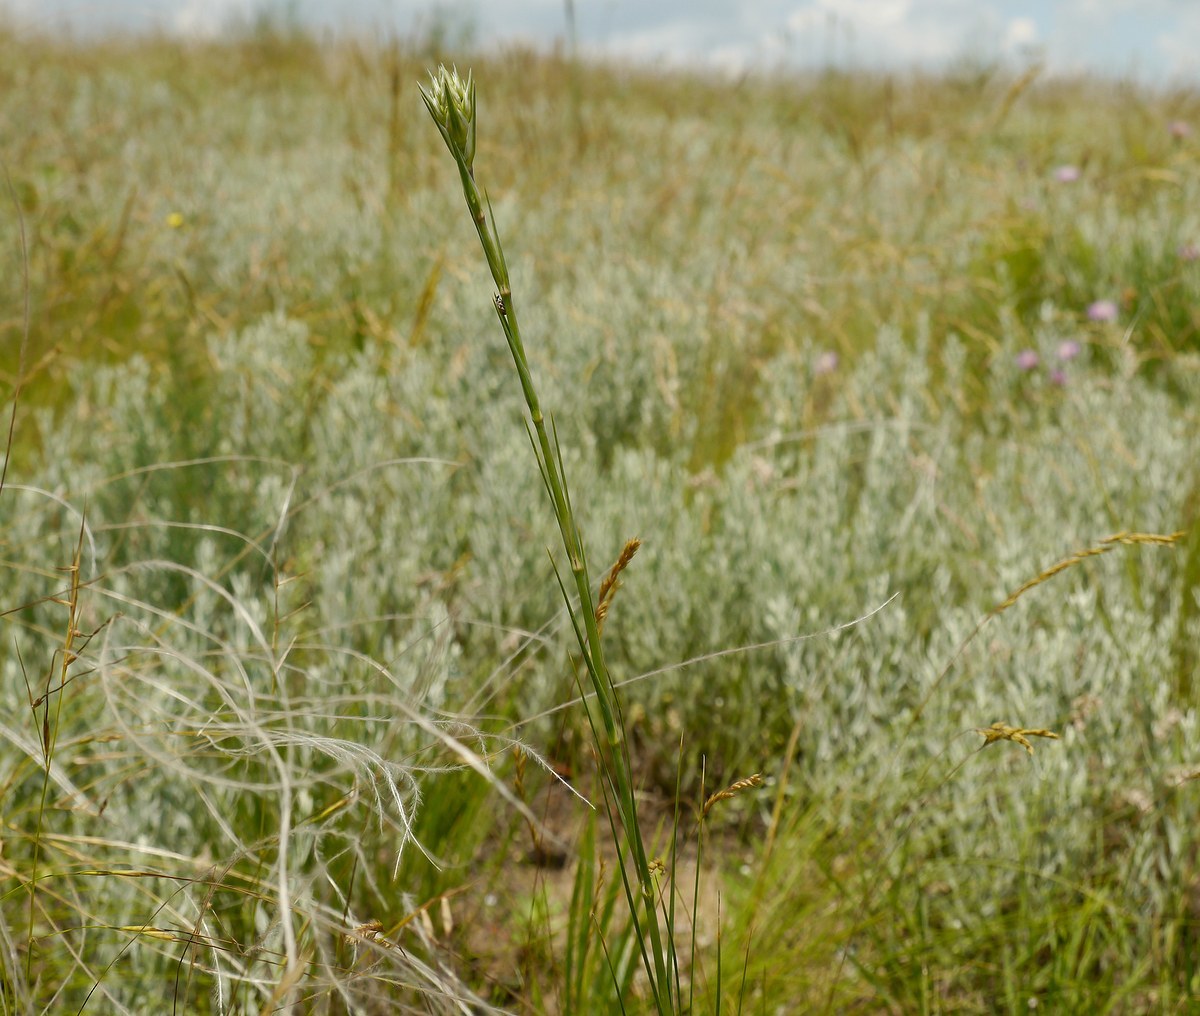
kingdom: Plantae
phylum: Tracheophyta
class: Magnoliopsida
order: Caryophyllales
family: Caryophyllaceae
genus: Eremogone
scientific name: Eremogone cephalotes
